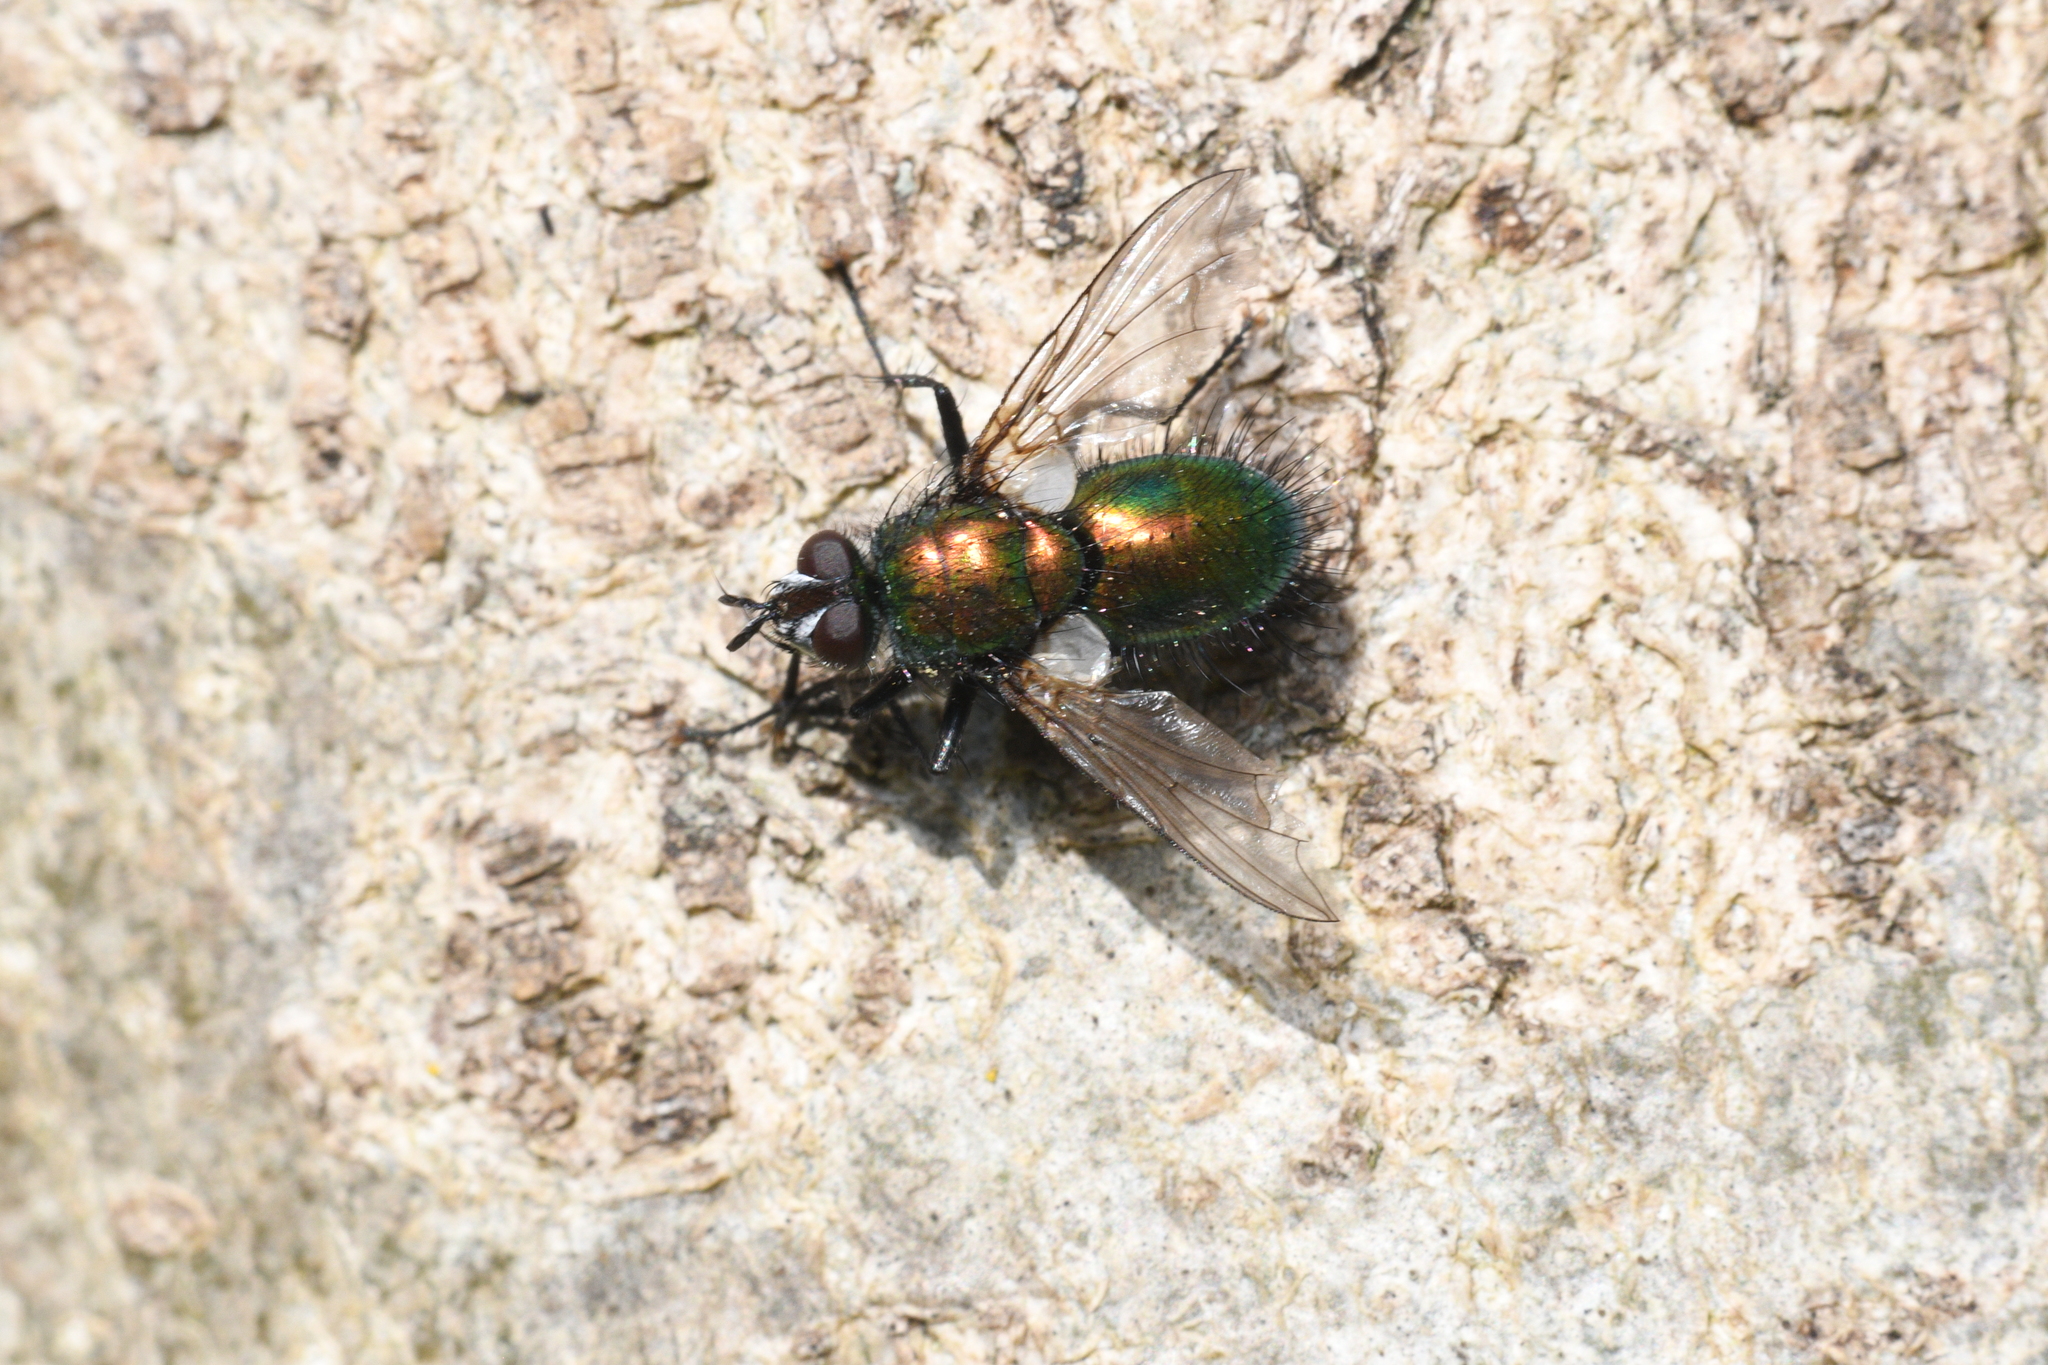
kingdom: Animalia
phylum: Arthropoda
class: Insecta
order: Diptera
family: Tachinidae
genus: Gymnocheta
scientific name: Gymnocheta viridis
